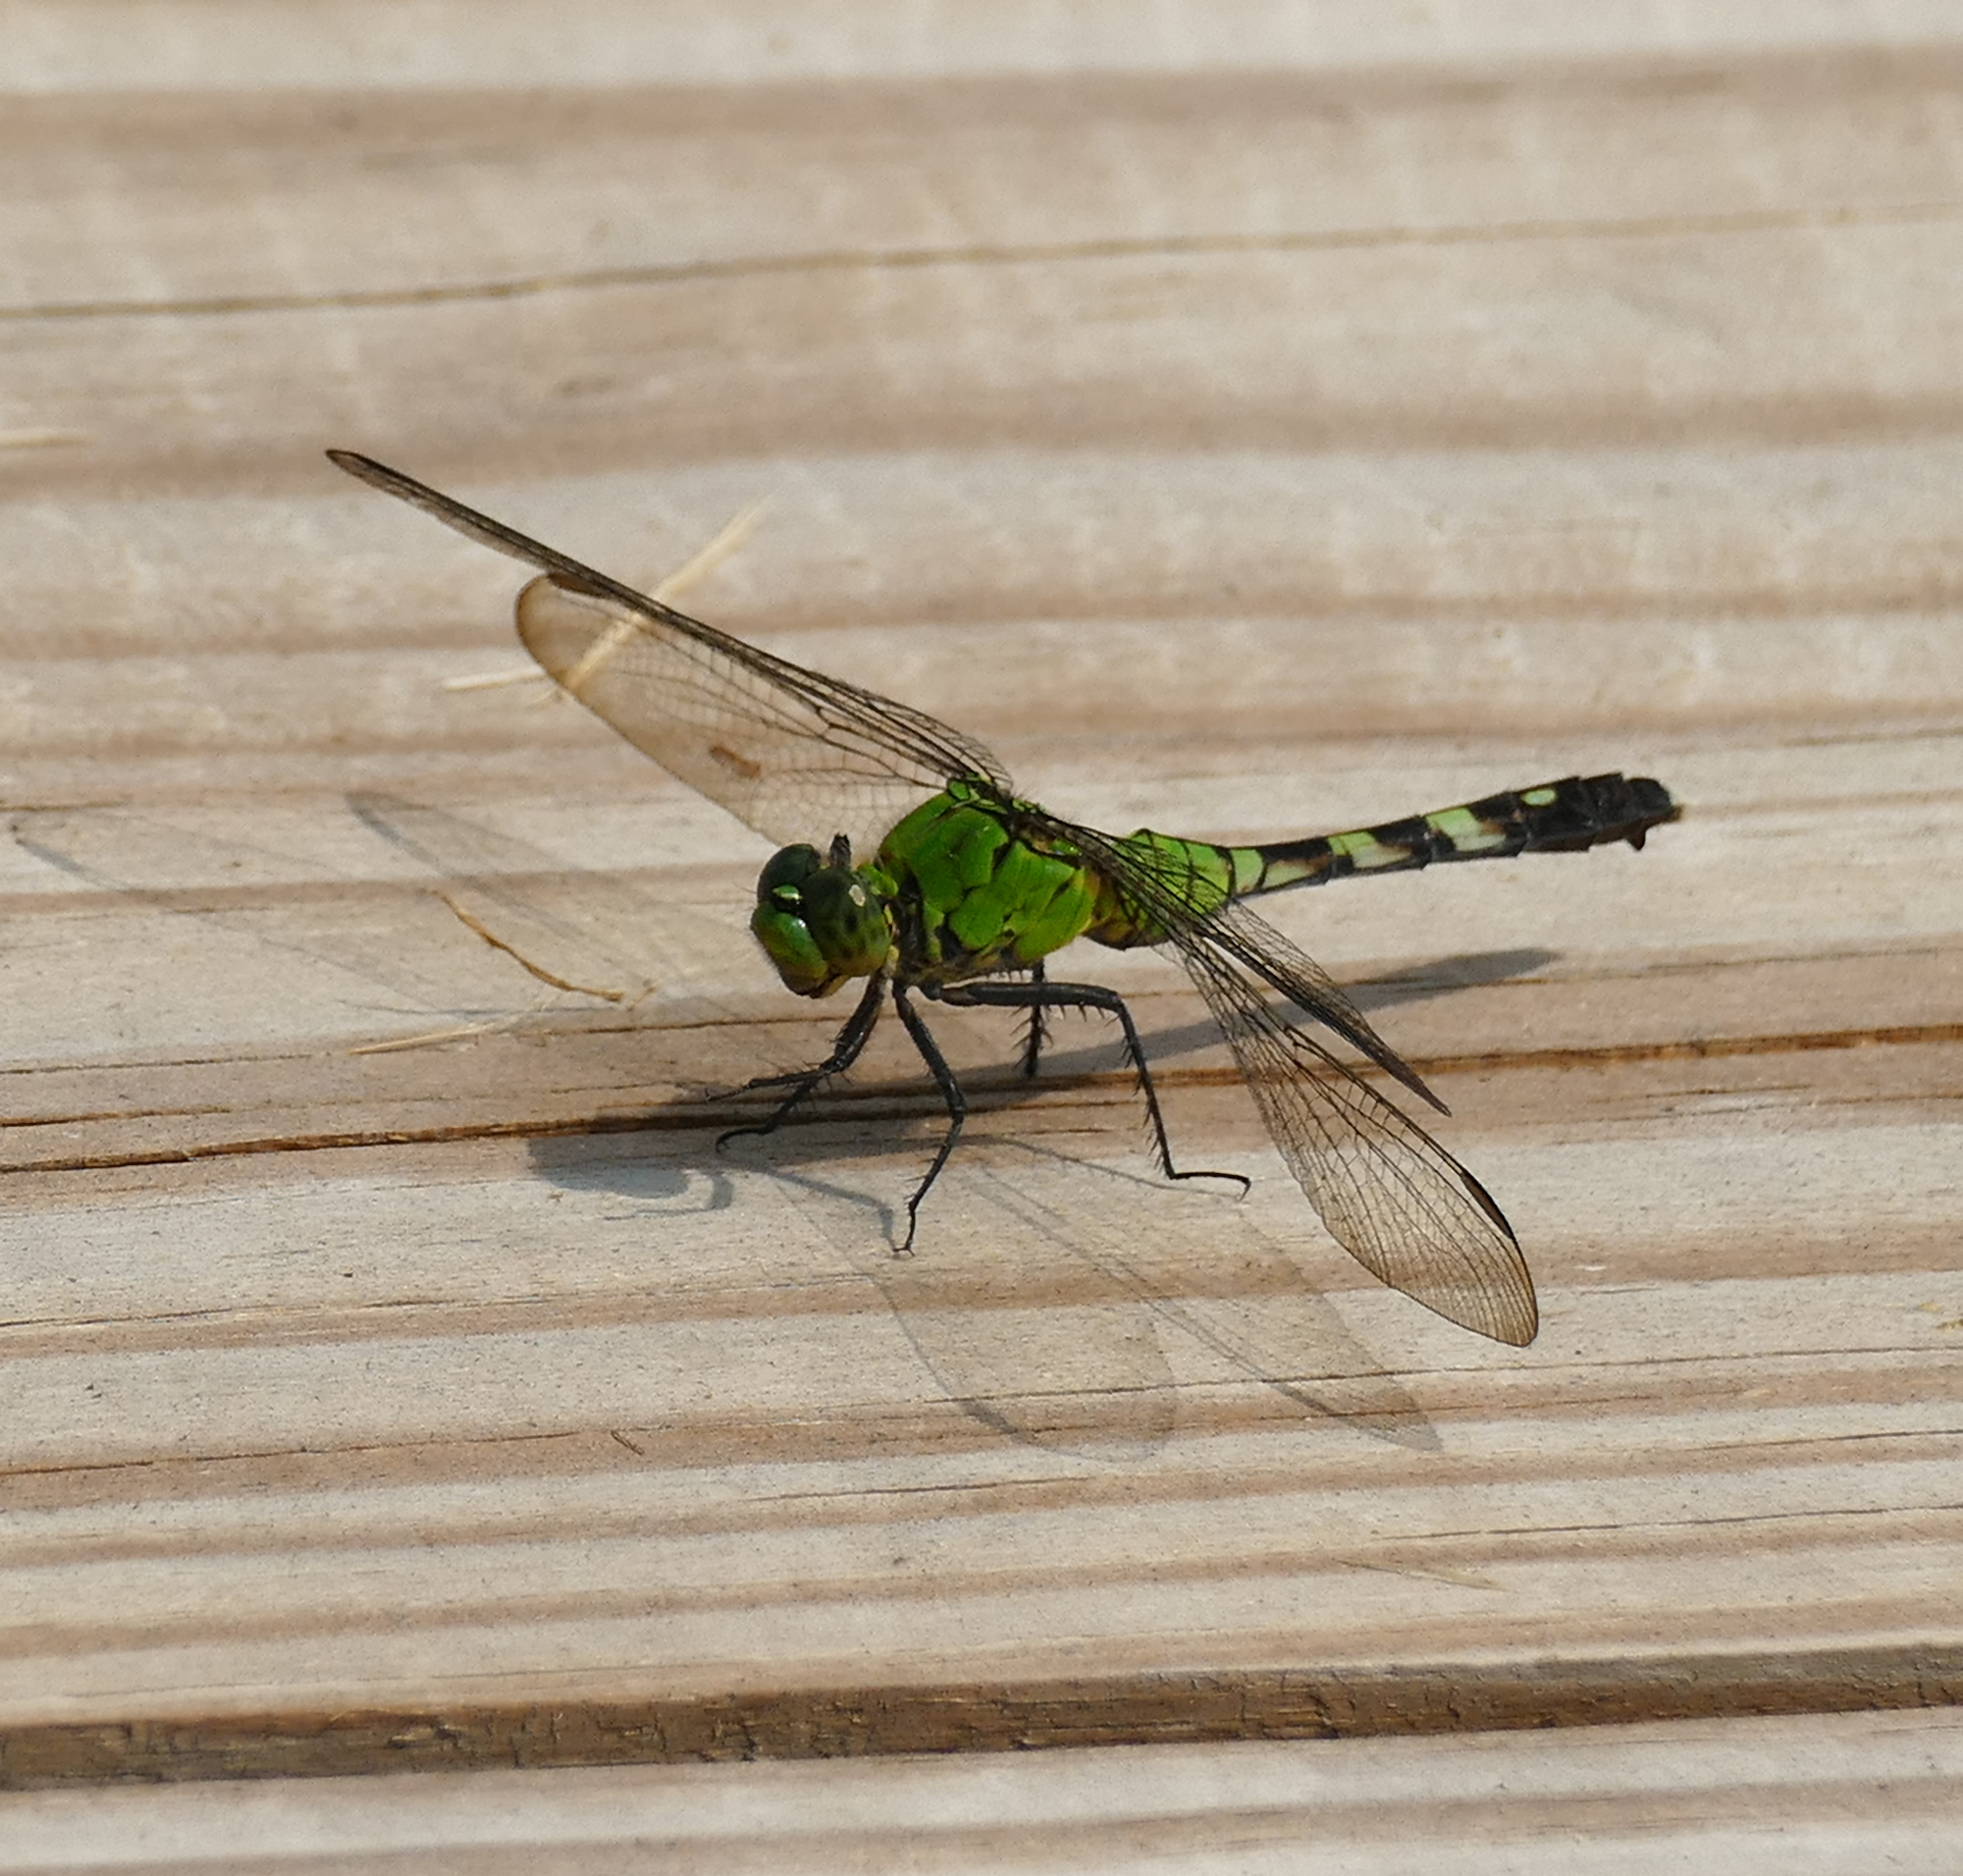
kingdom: Animalia
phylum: Arthropoda
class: Insecta
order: Odonata
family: Libellulidae
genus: Erythemis
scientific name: Erythemis simplicicollis
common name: Eastern pondhawk
